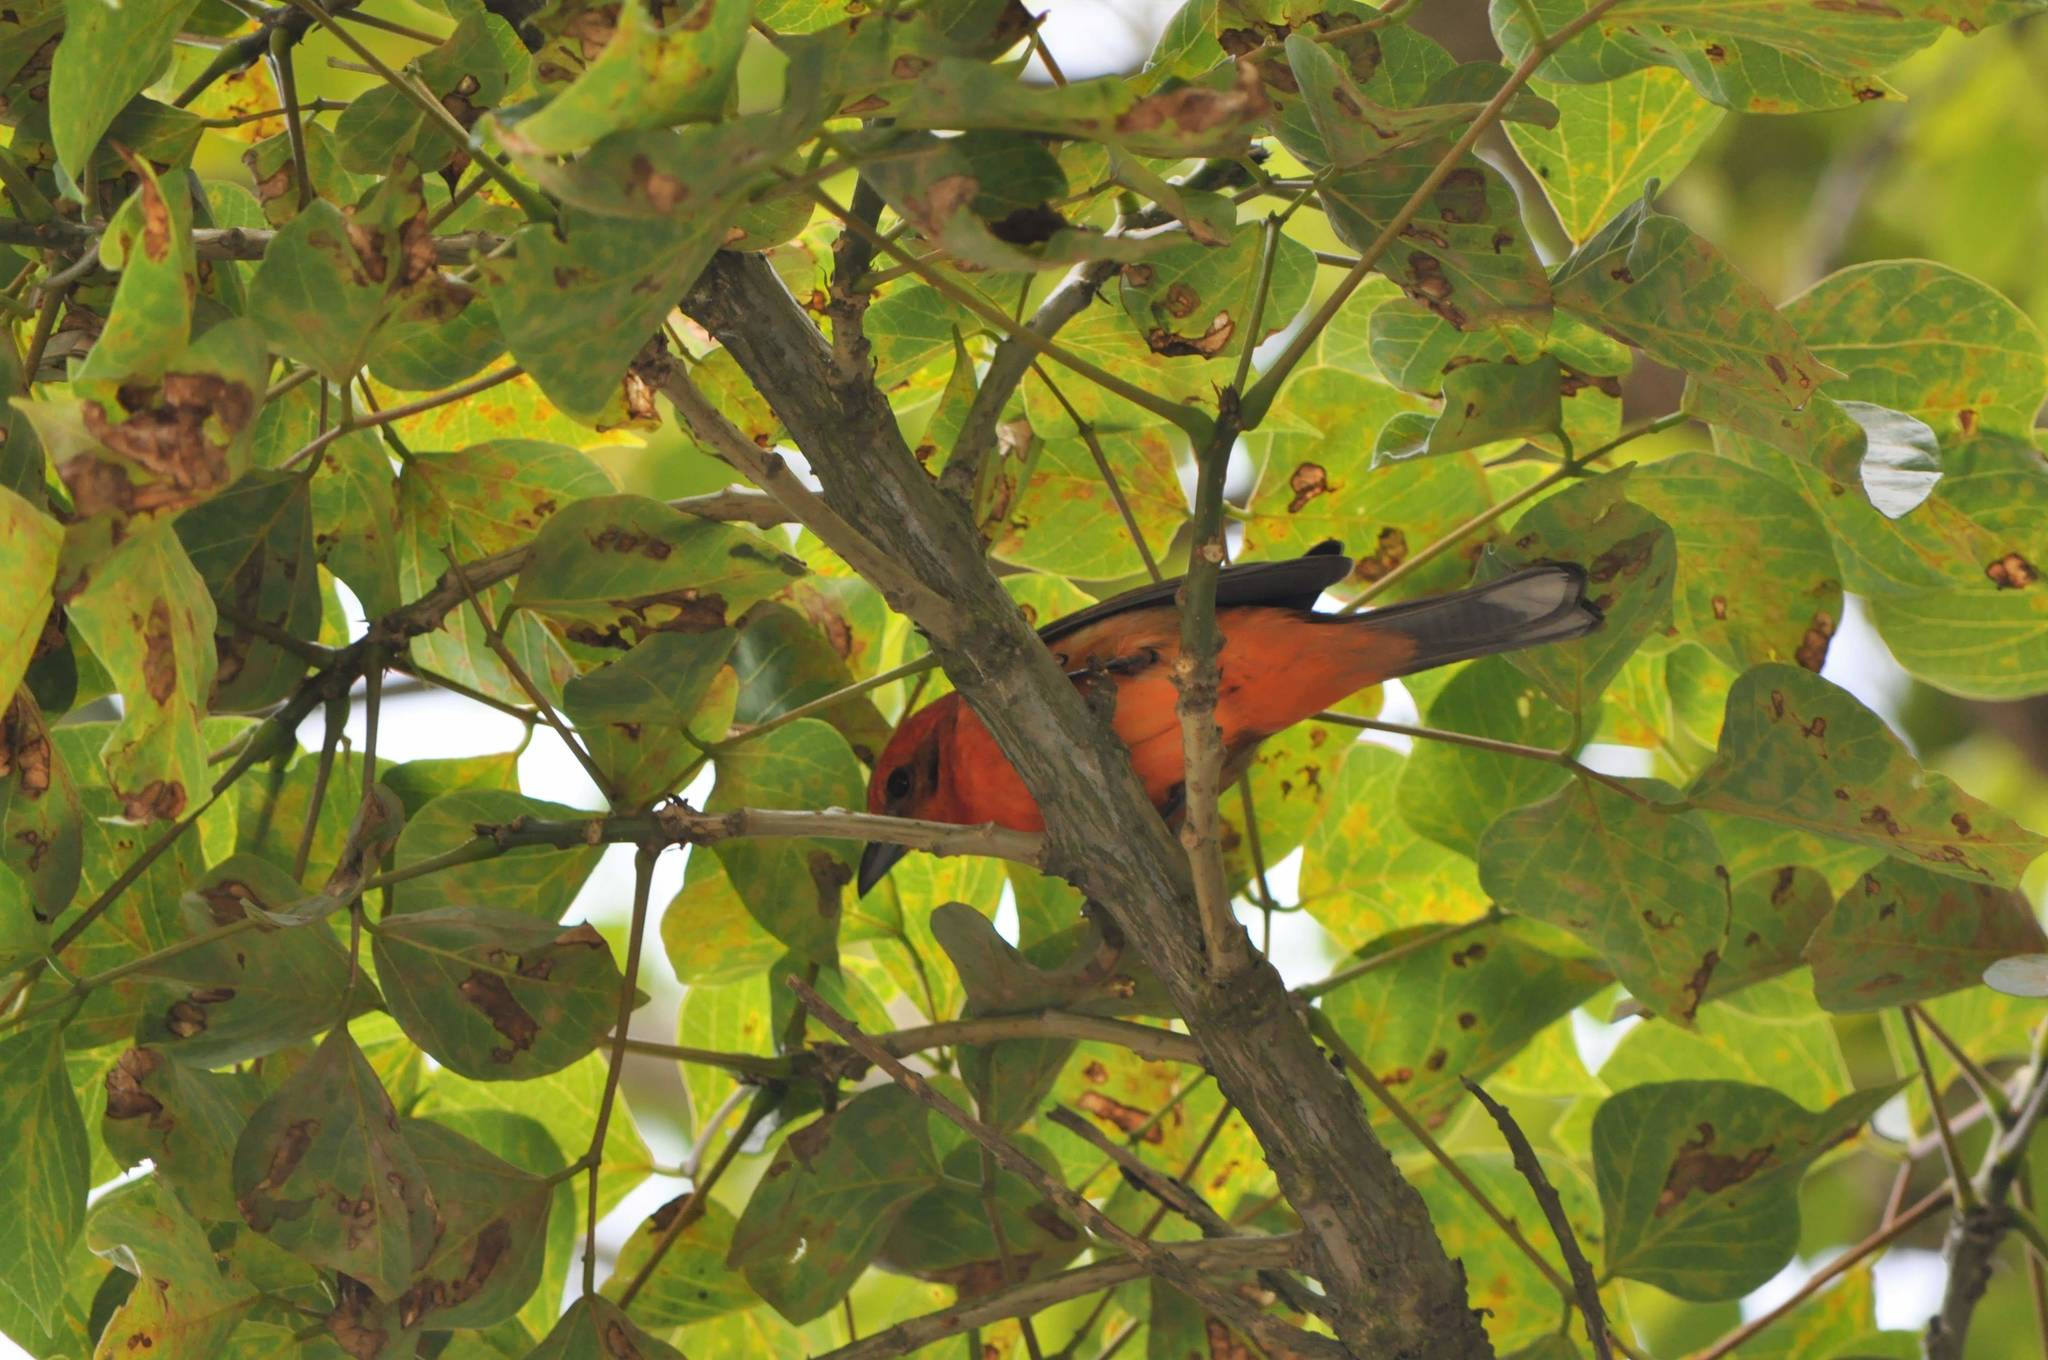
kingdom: Animalia
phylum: Chordata
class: Aves
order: Passeriformes
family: Cardinalidae
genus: Piranga
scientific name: Piranga bidentata
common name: Flame-colored tanager
